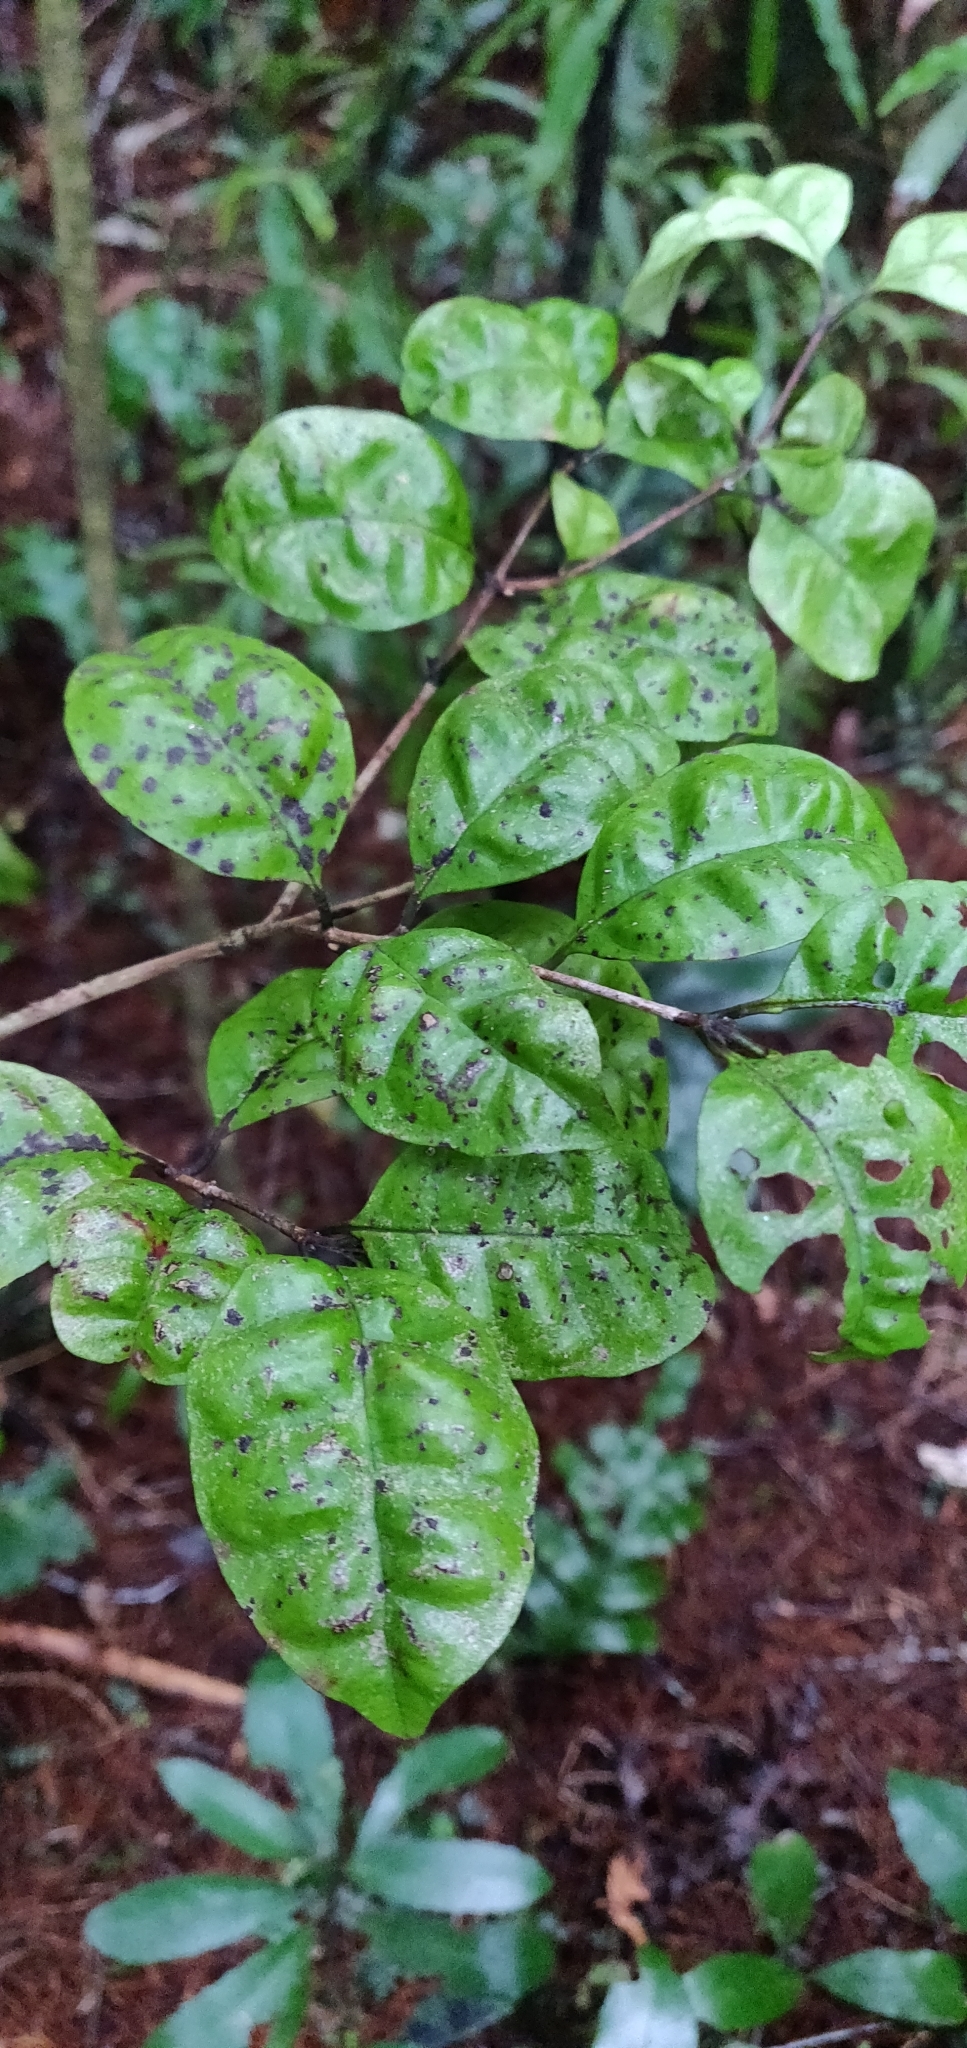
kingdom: Plantae
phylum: Tracheophyta
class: Magnoliopsida
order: Myrtales
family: Myrtaceae
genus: Lophomyrtus
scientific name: Lophomyrtus bullata
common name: Rama rama
